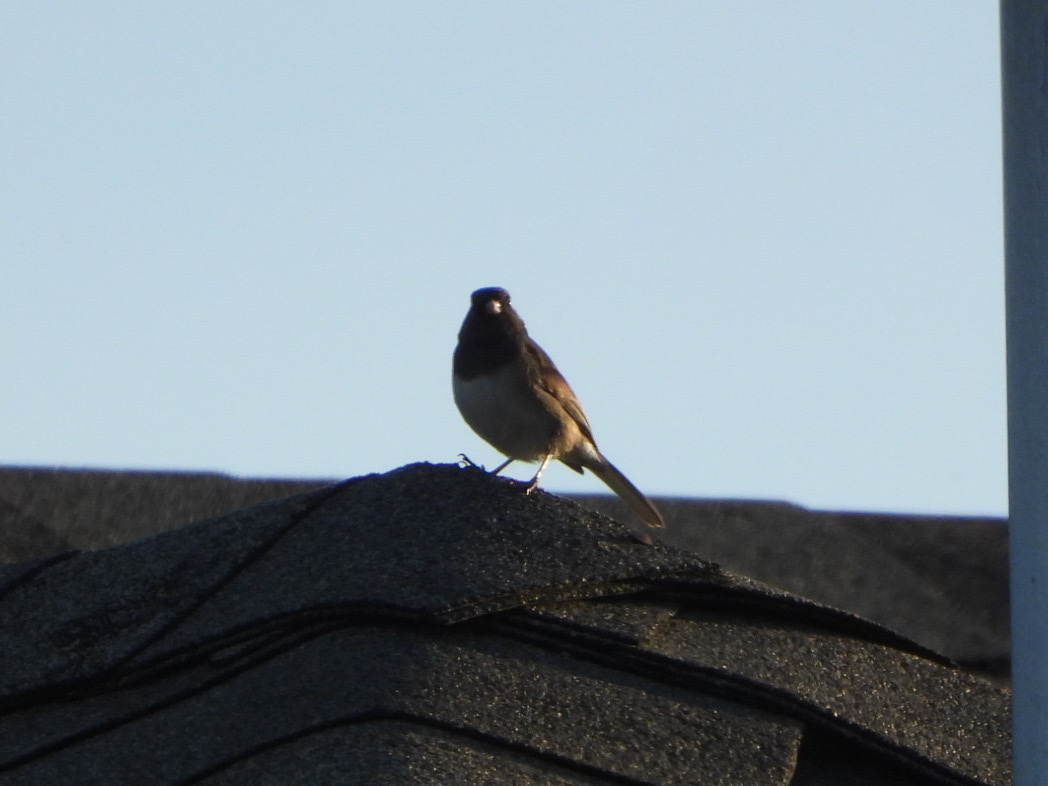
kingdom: Animalia
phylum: Chordata
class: Aves
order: Passeriformes
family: Passerellidae
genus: Junco
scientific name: Junco hyemalis
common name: Dark-eyed junco
